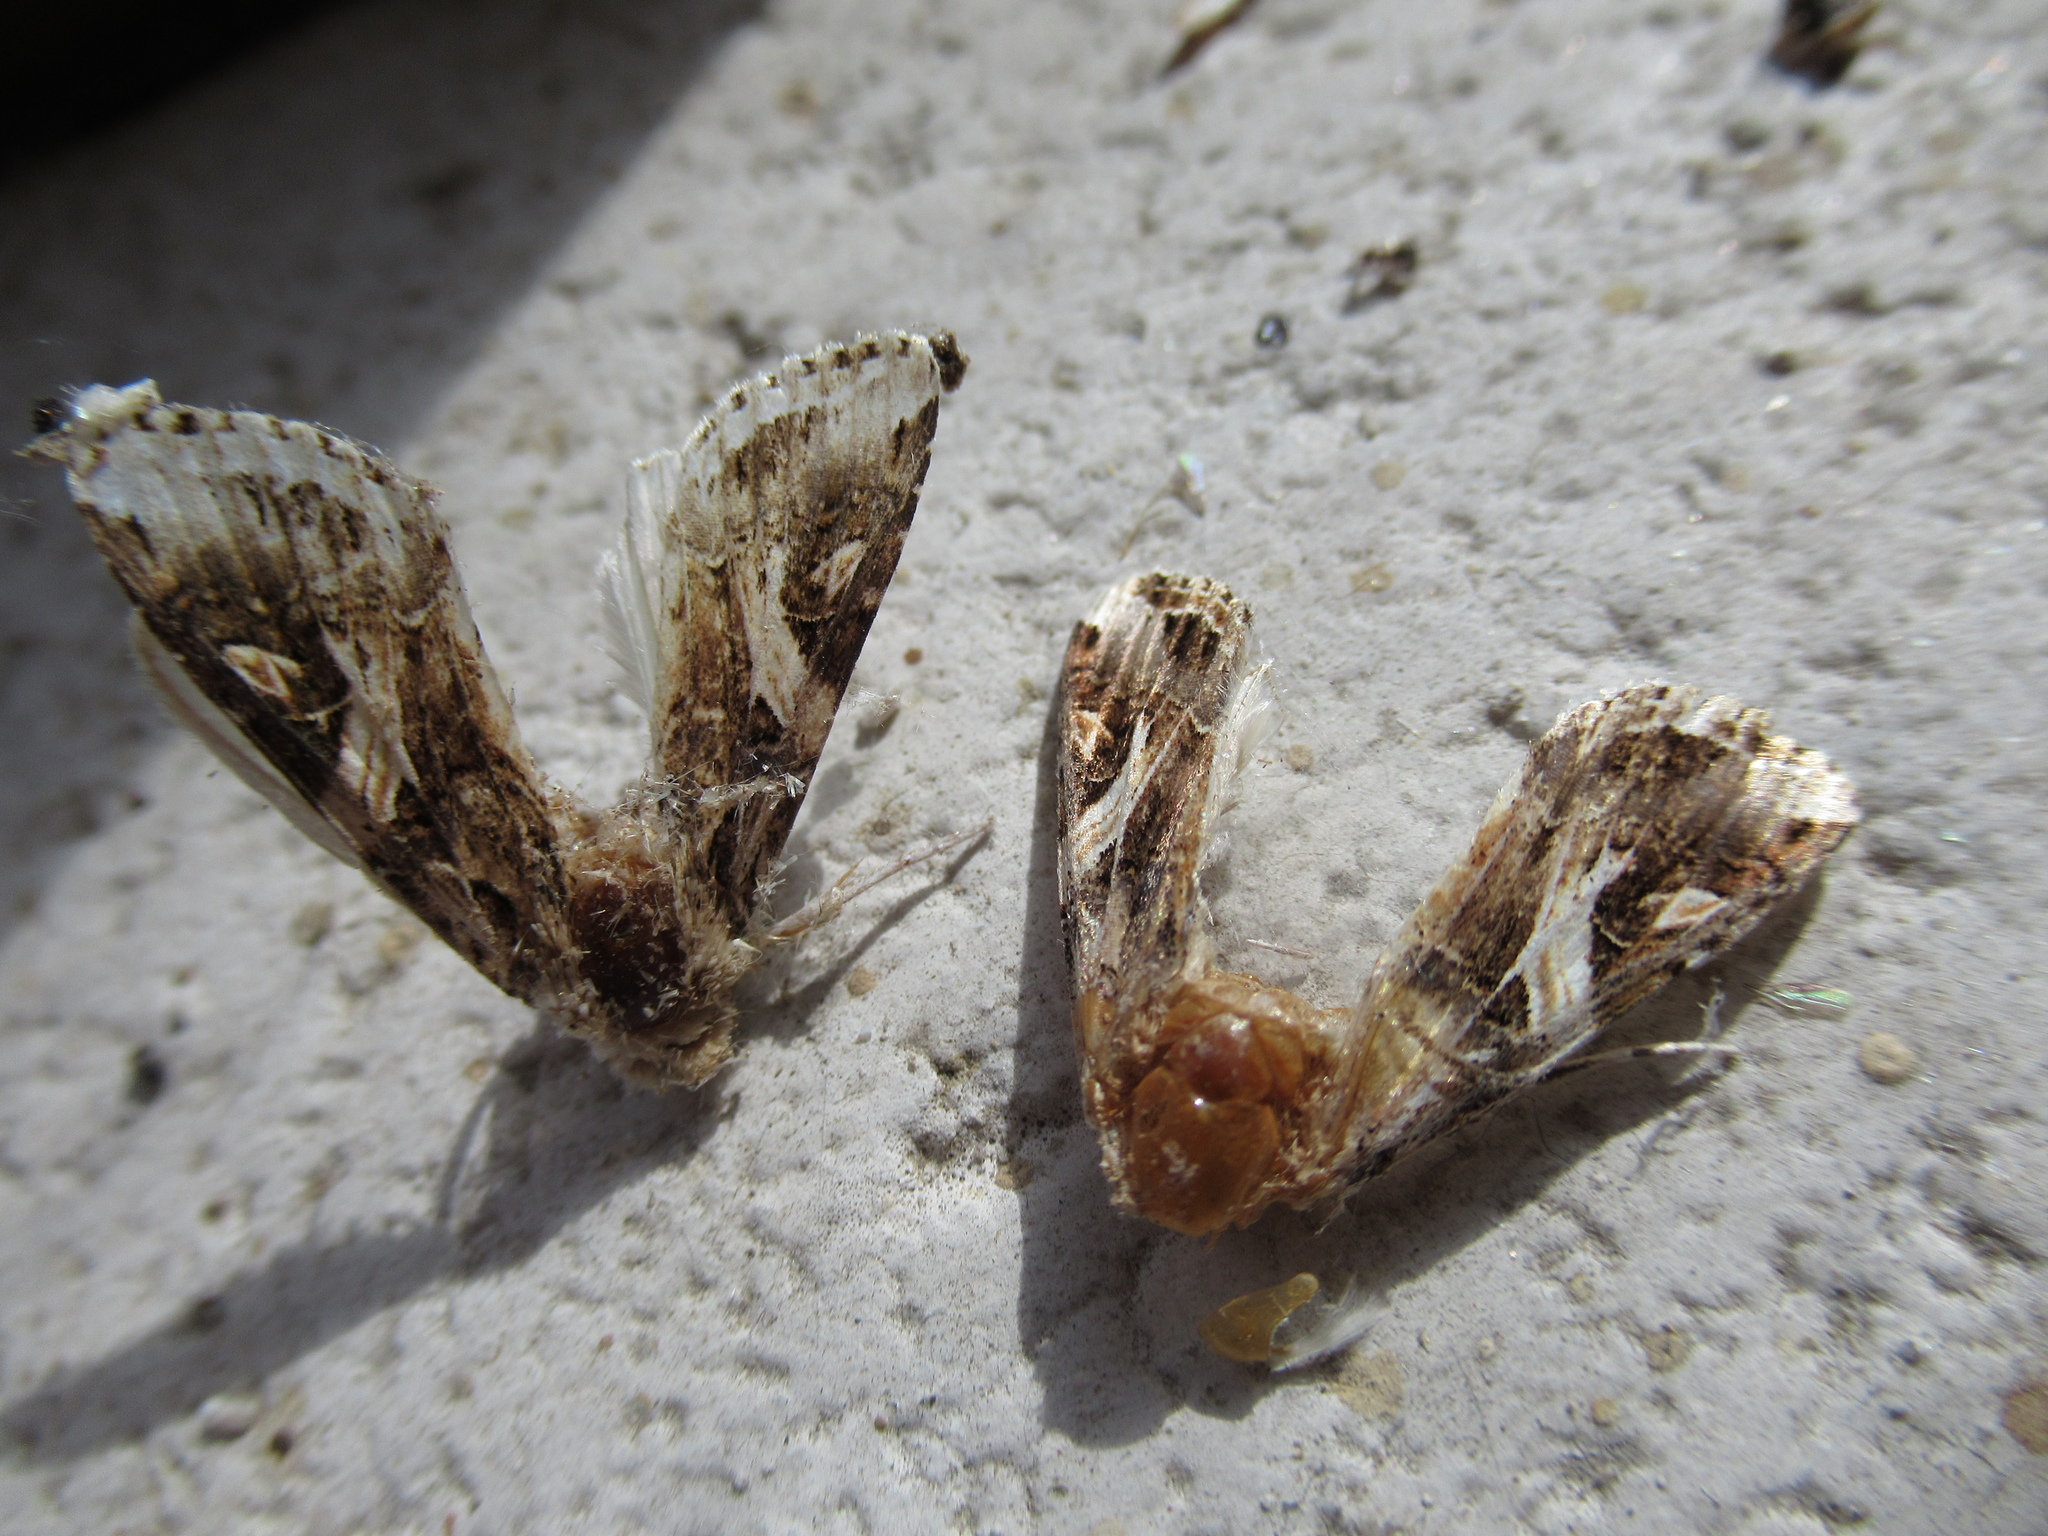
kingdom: Animalia
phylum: Arthropoda
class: Insecta
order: Lepidoptera
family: Noctuidae
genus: Spodoptera
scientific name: Spodoptera litura
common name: Asian cotton leafworm
